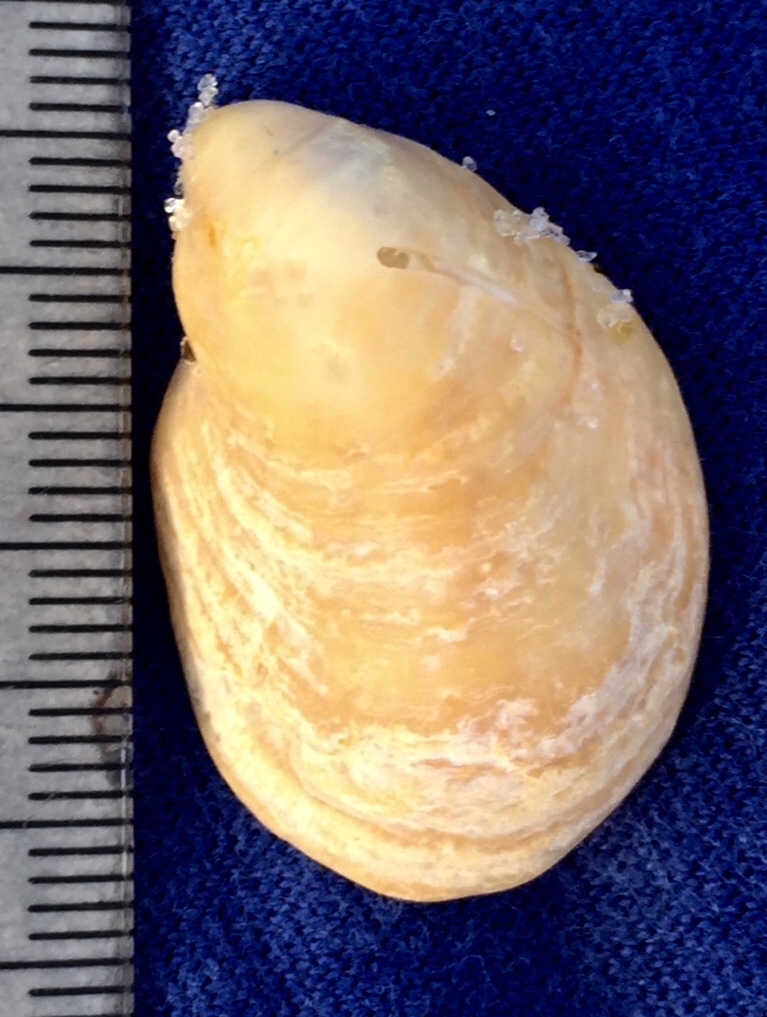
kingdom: Animalia
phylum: Mollusca
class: Gastropoda
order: Littorinimorpha
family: Calyptraeidae
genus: Crepidula
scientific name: Crepidula fornicata
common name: Slipper limpet
